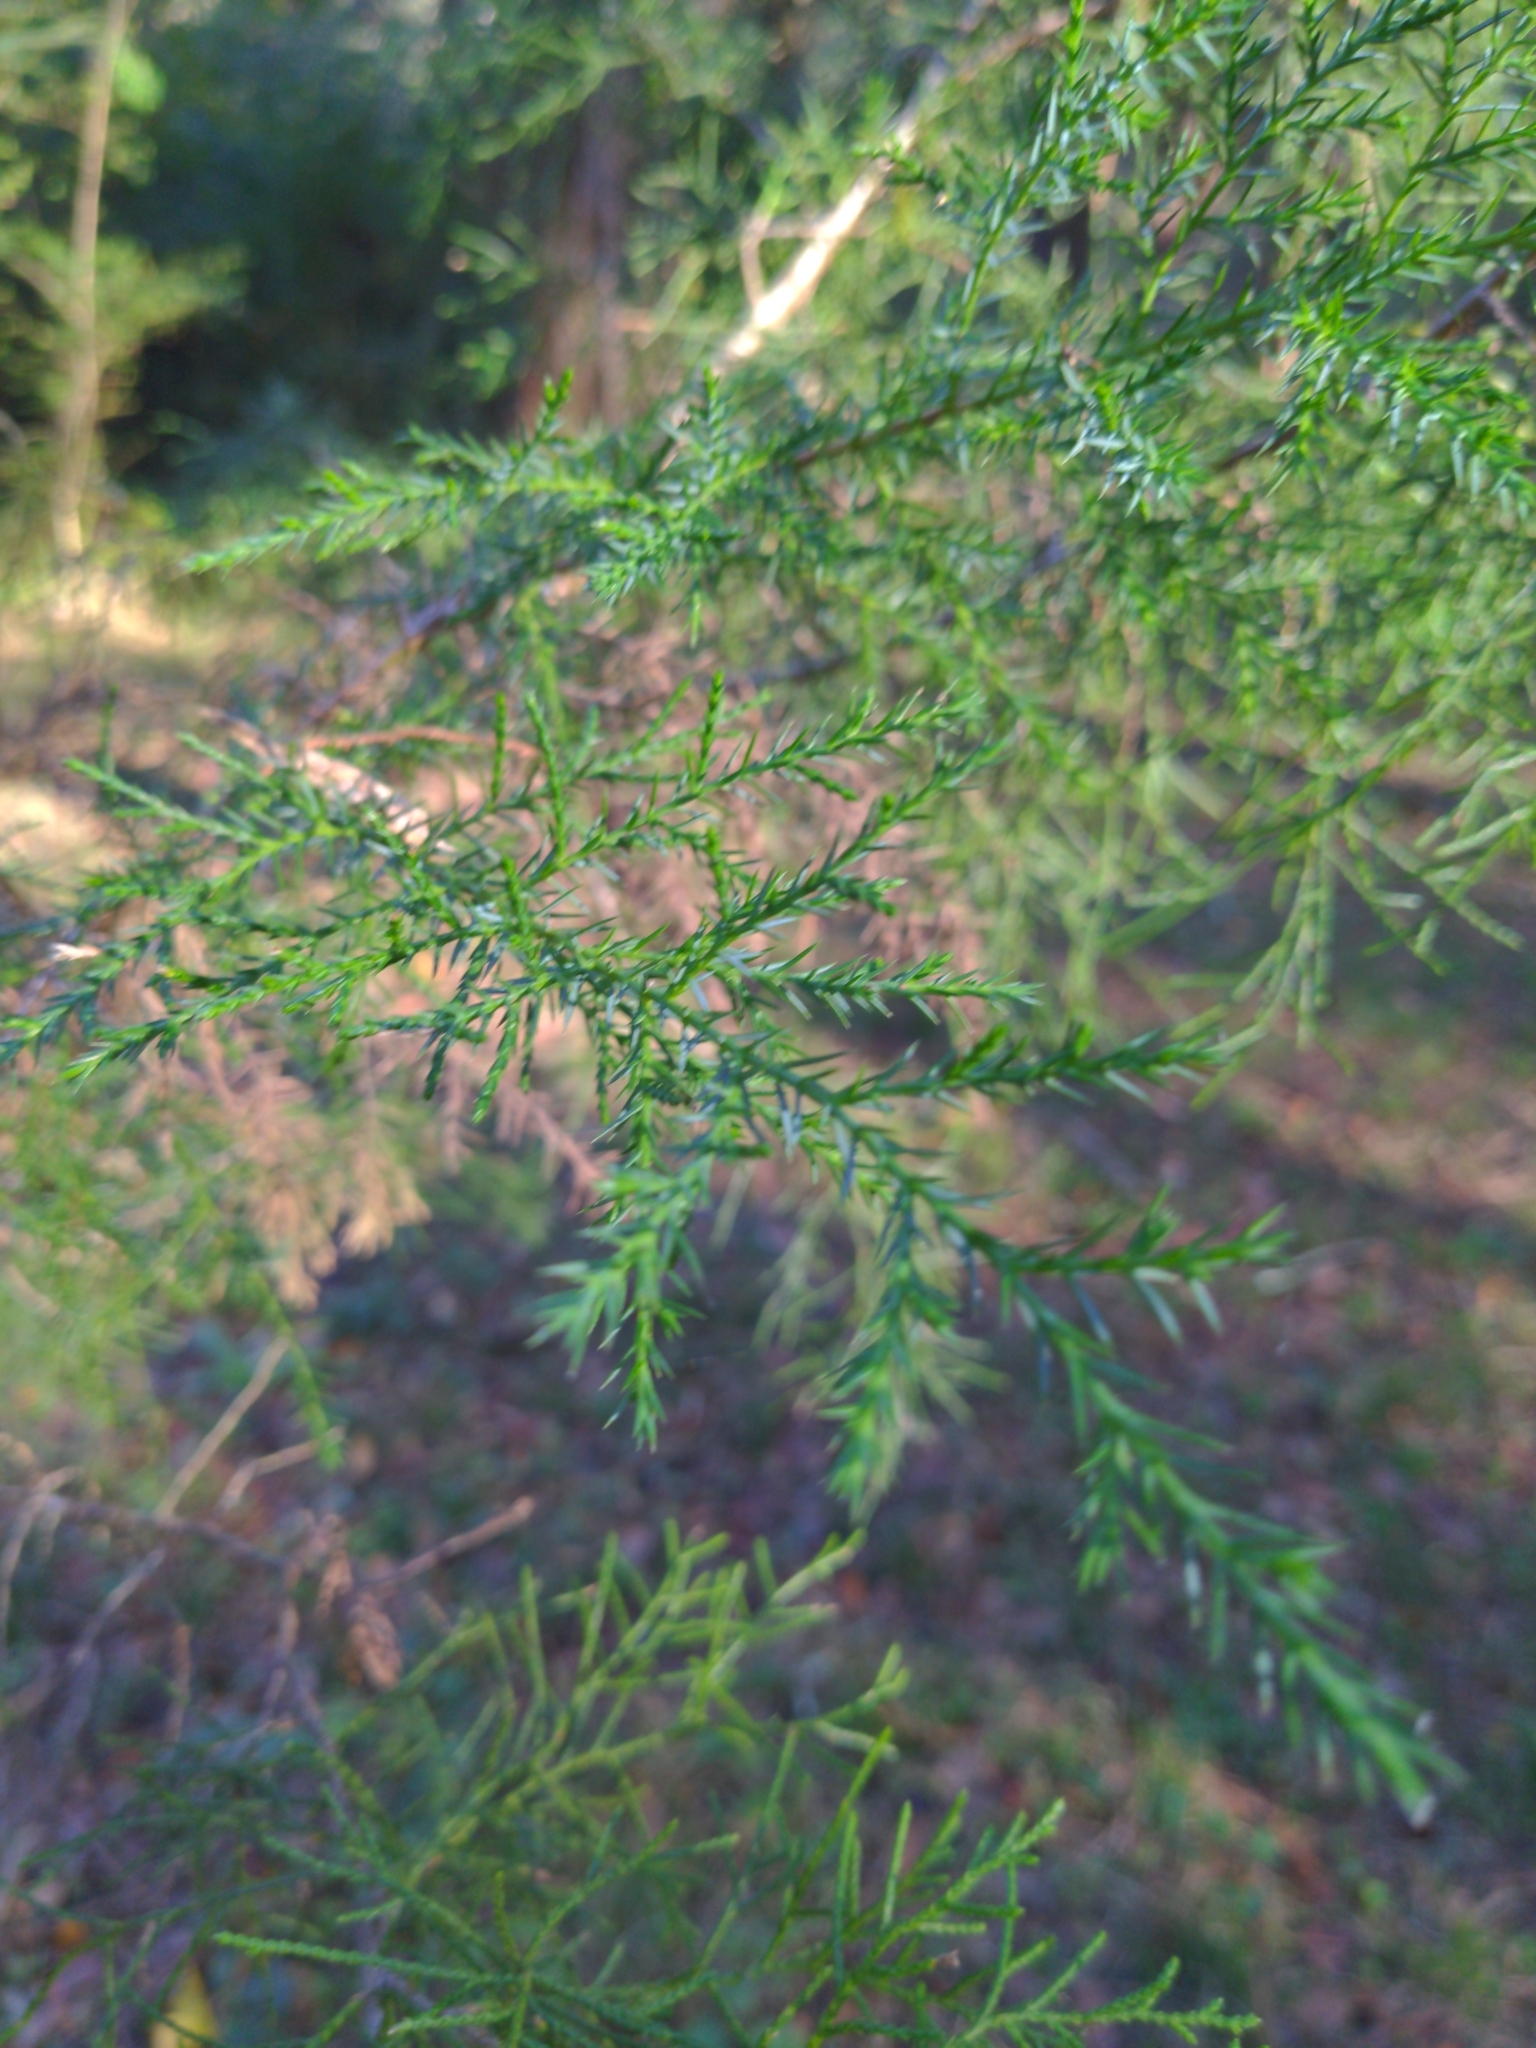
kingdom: Plantae
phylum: Tracheophyta
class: Pinopsida
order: Pinales
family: Cupressaceae
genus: Juniperus
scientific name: Juniperus virginiana
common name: Red juniper
